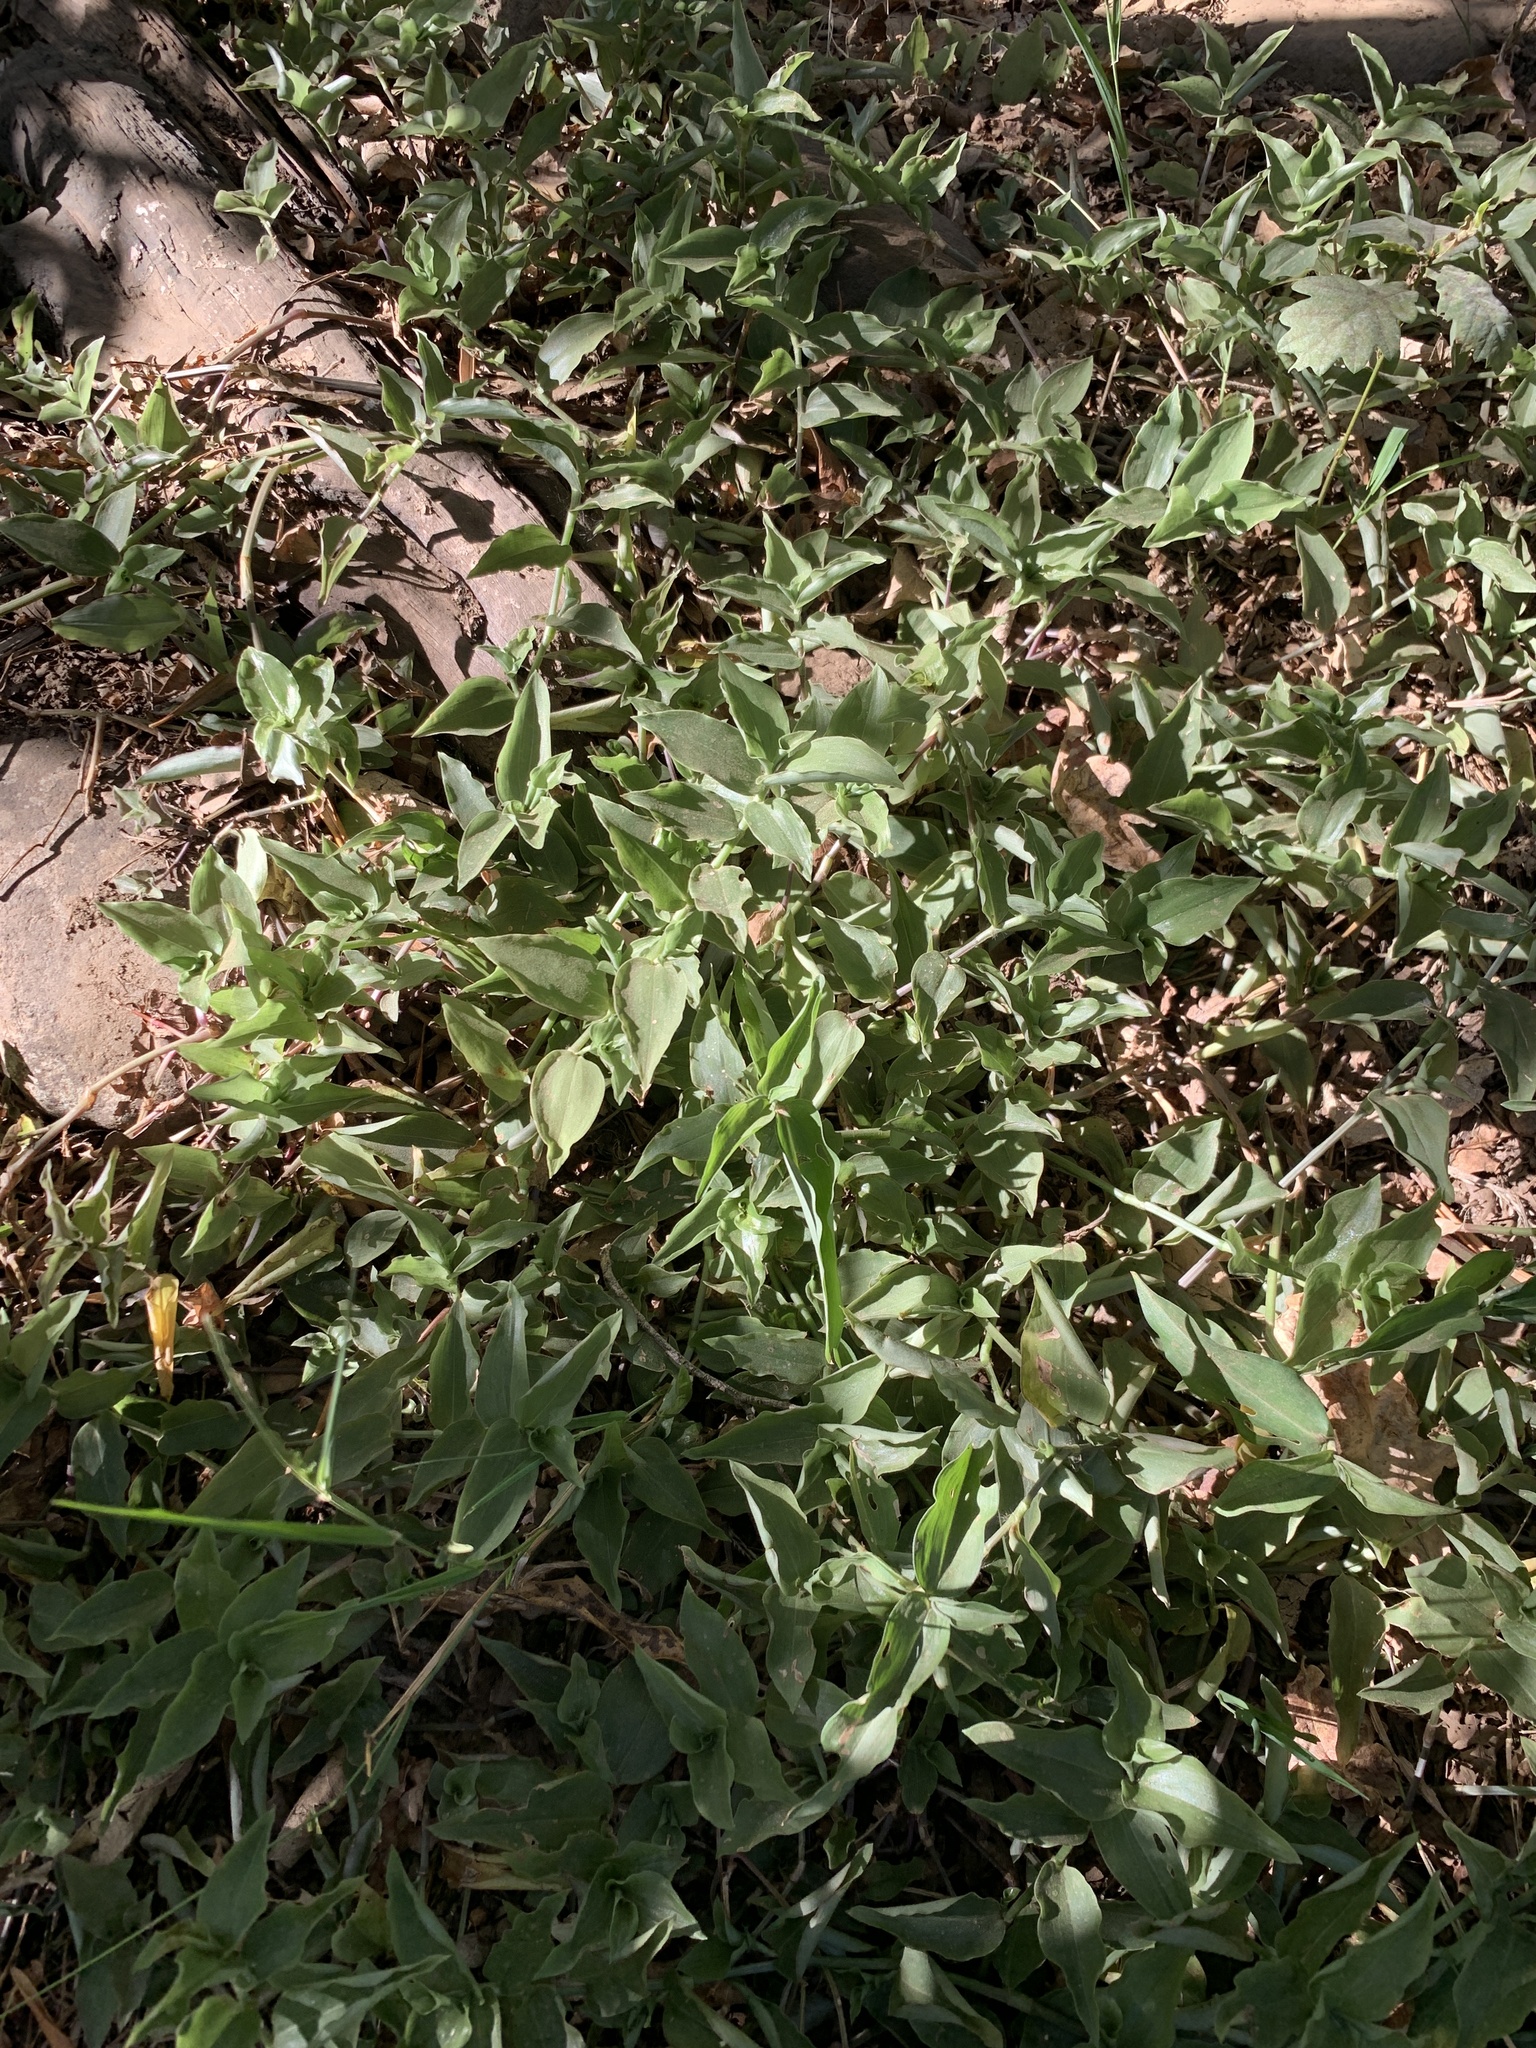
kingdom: Plantae
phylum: Tracheophyta
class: Liliopsida
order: Commelinales
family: Commelinaceae
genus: Tradescantia
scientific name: Tradescantia fluminensis
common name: Wandering-jew
